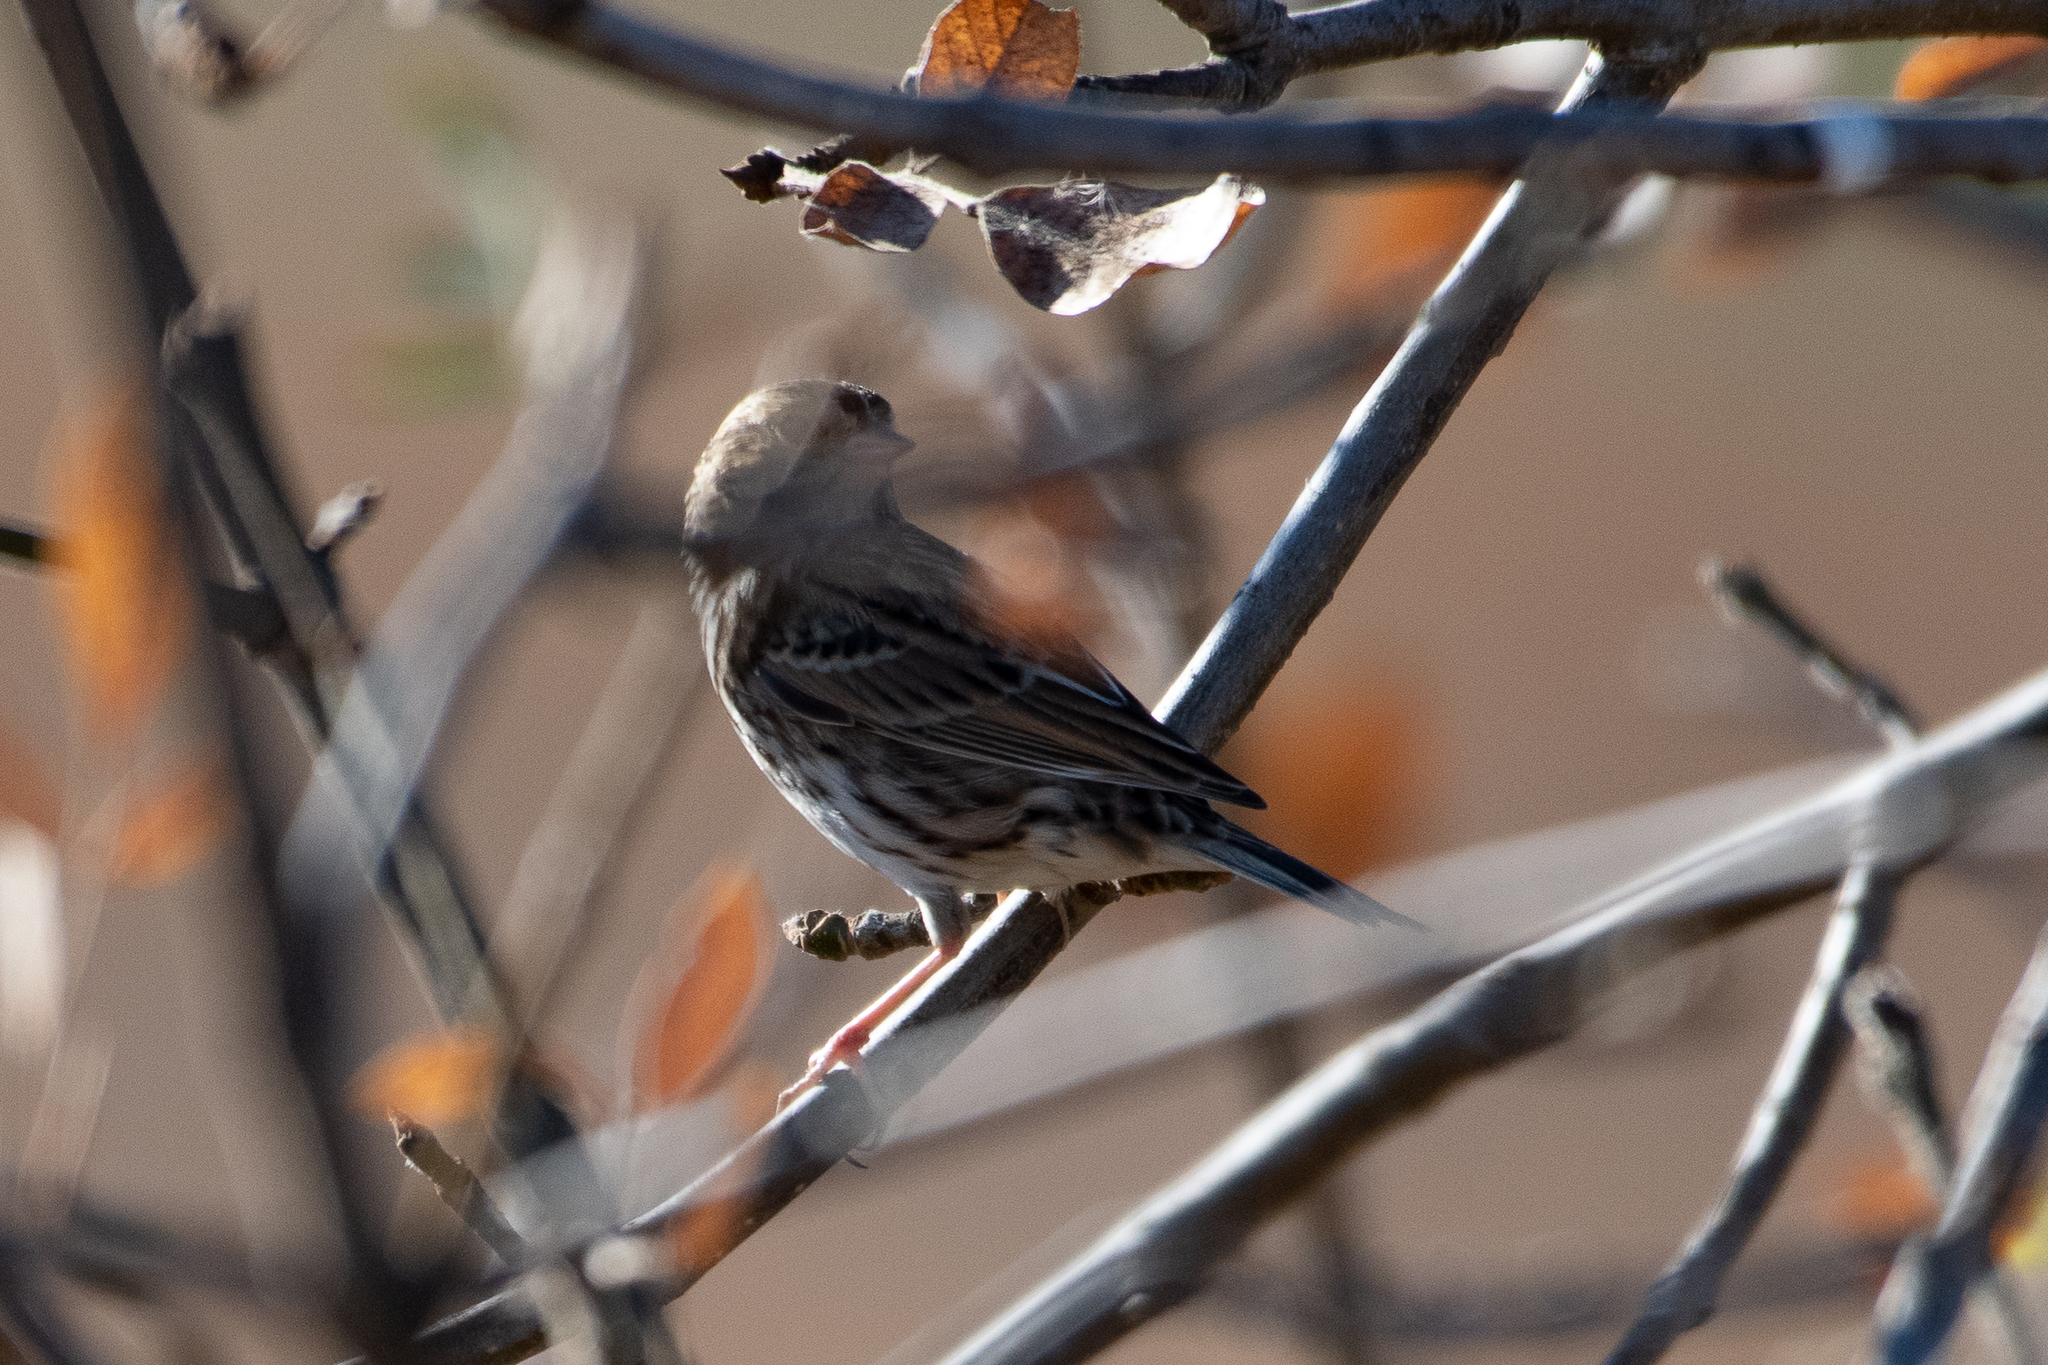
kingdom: Animalia
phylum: Chordata
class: Aves
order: Passeriformes
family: Passerellidae
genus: Passerculus
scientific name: Passerculus sandwichensis
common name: Savannah sparrow
